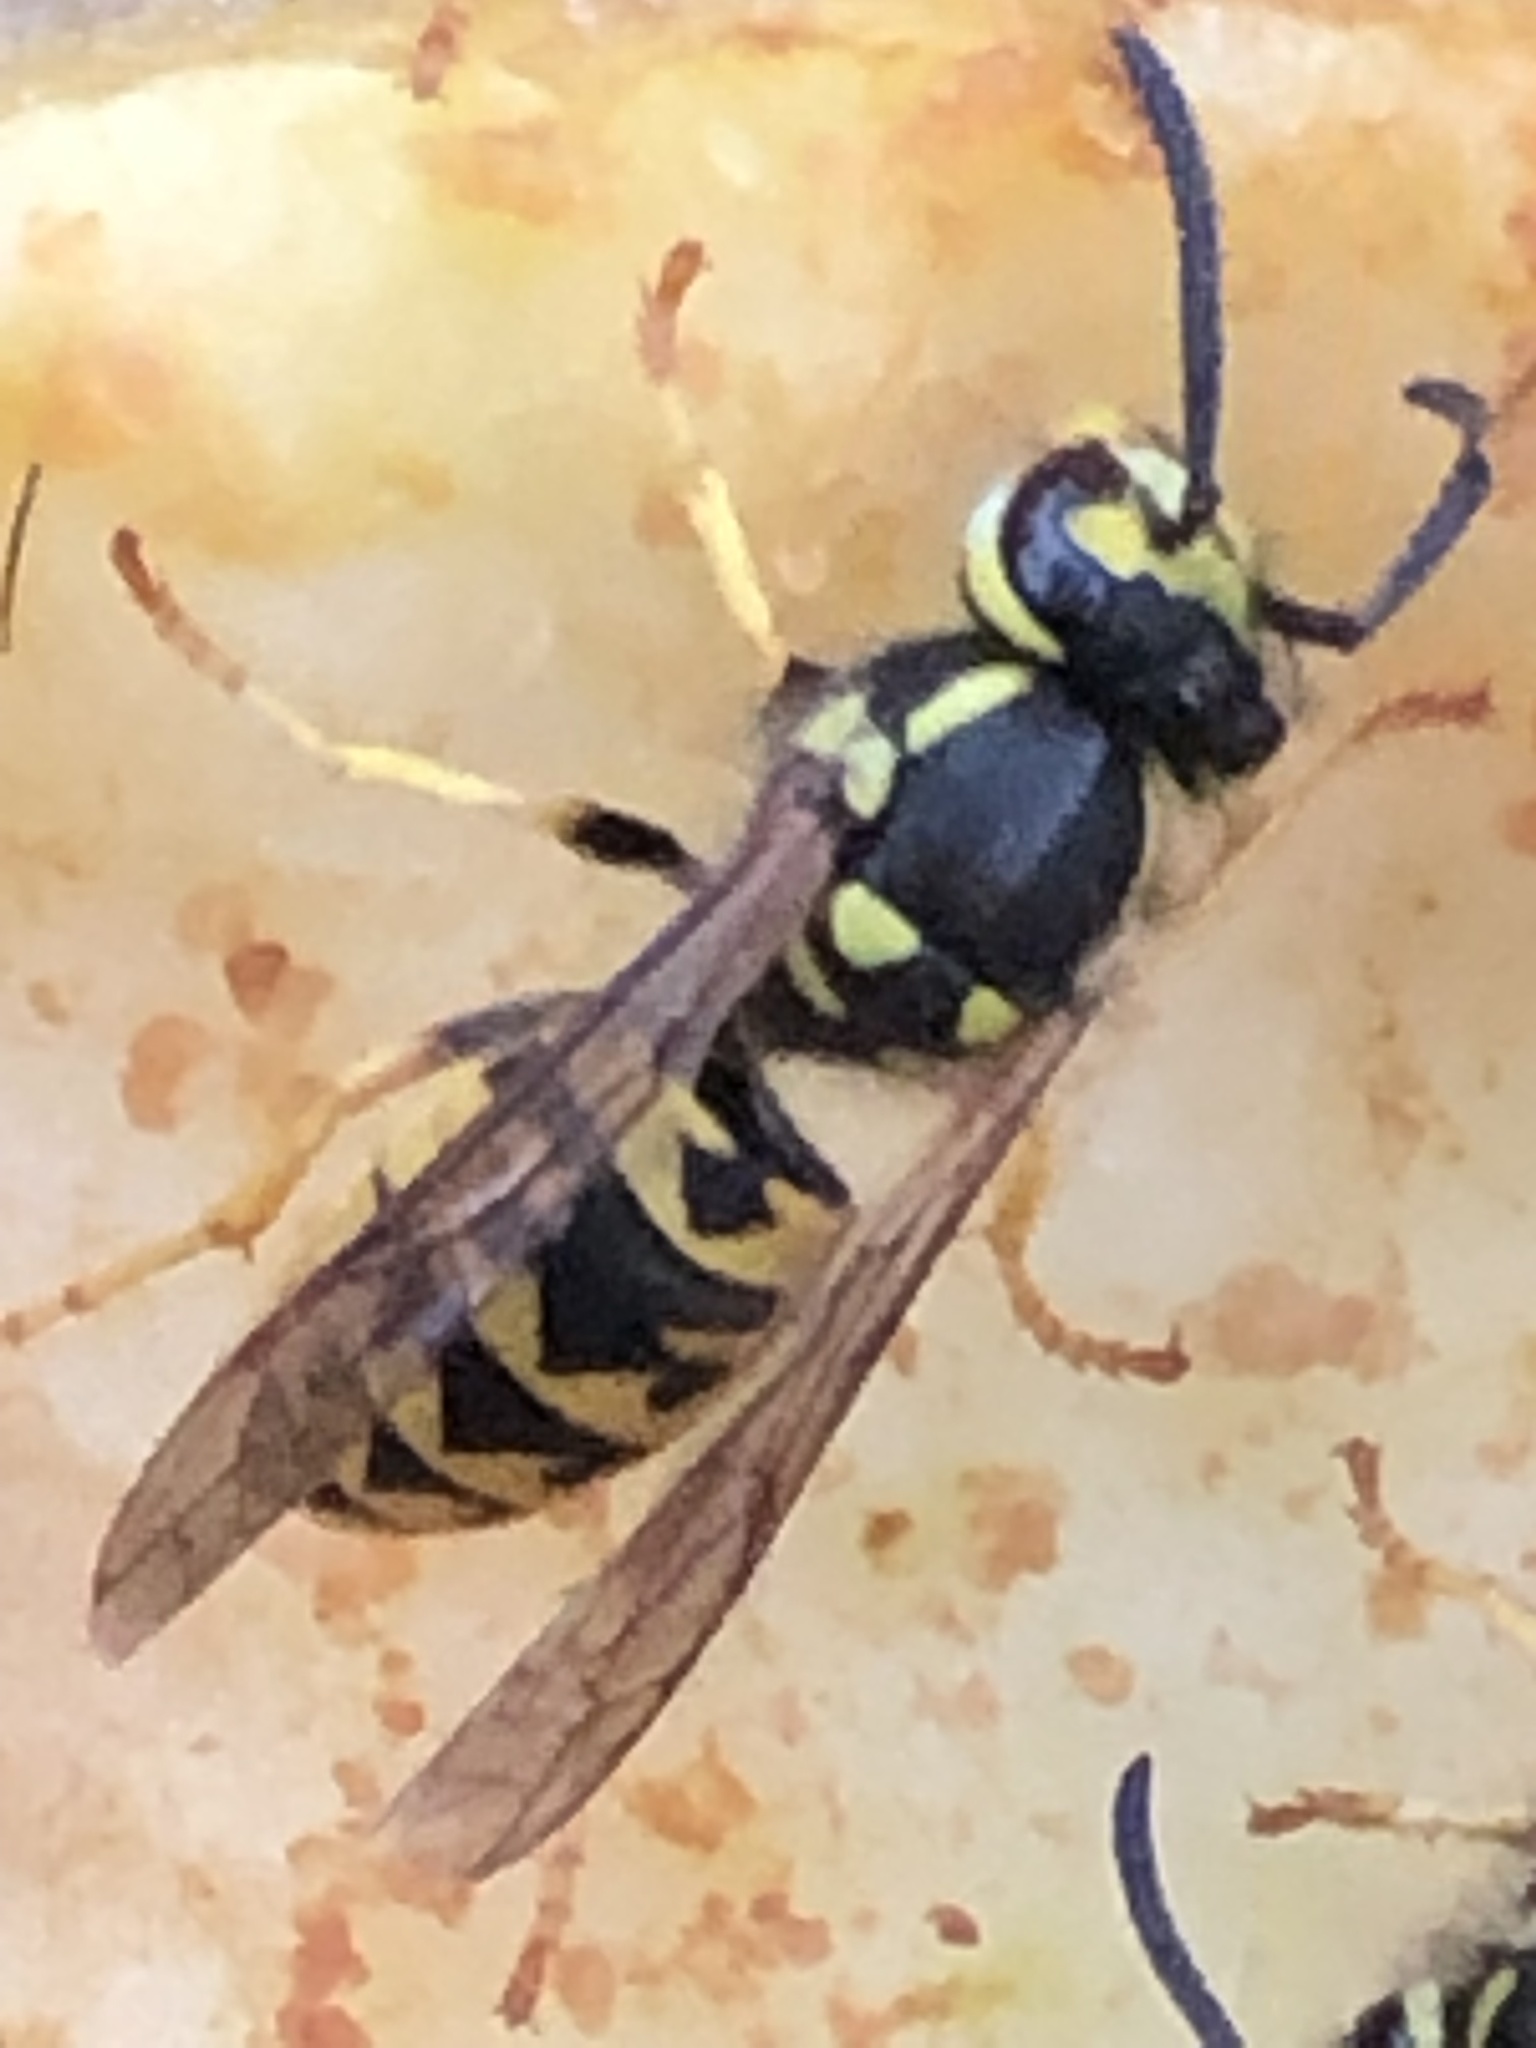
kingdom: Animalia
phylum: Arthropoda
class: Insecta
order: Hymenoptera
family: Vespidae
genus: Vespula
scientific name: Vespula germanica
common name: German wasp
